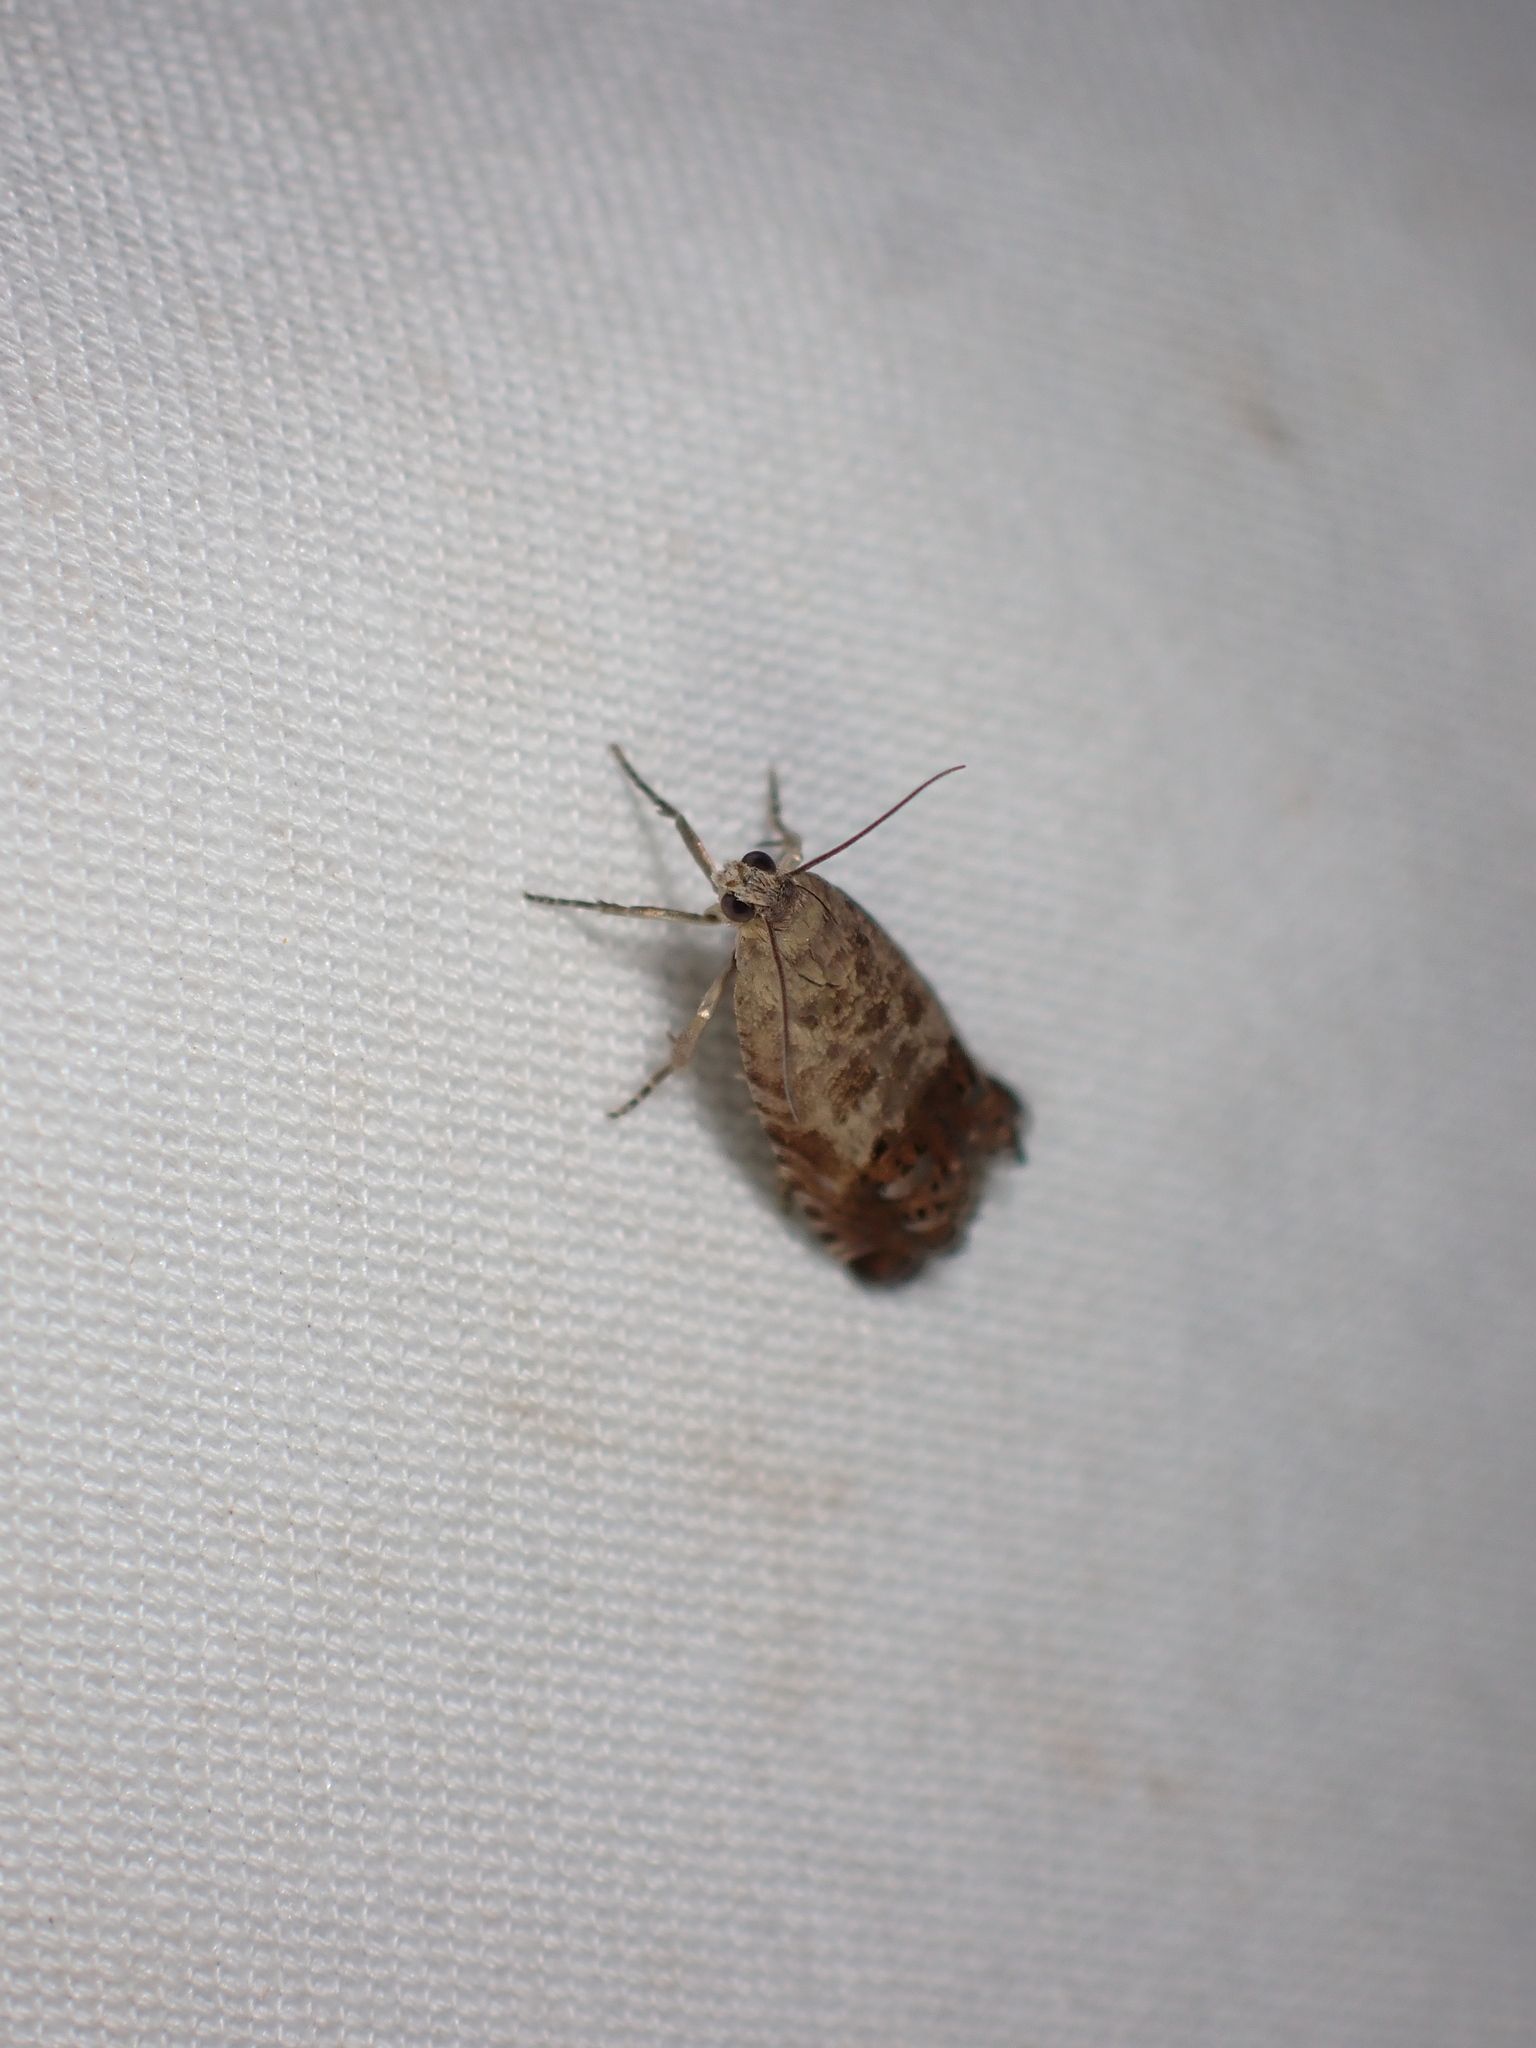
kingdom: Animalia
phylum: Arthropoda
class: Insecta
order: Lepidoptera
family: Tortricidae
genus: Cydia
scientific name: Cydia succedana
